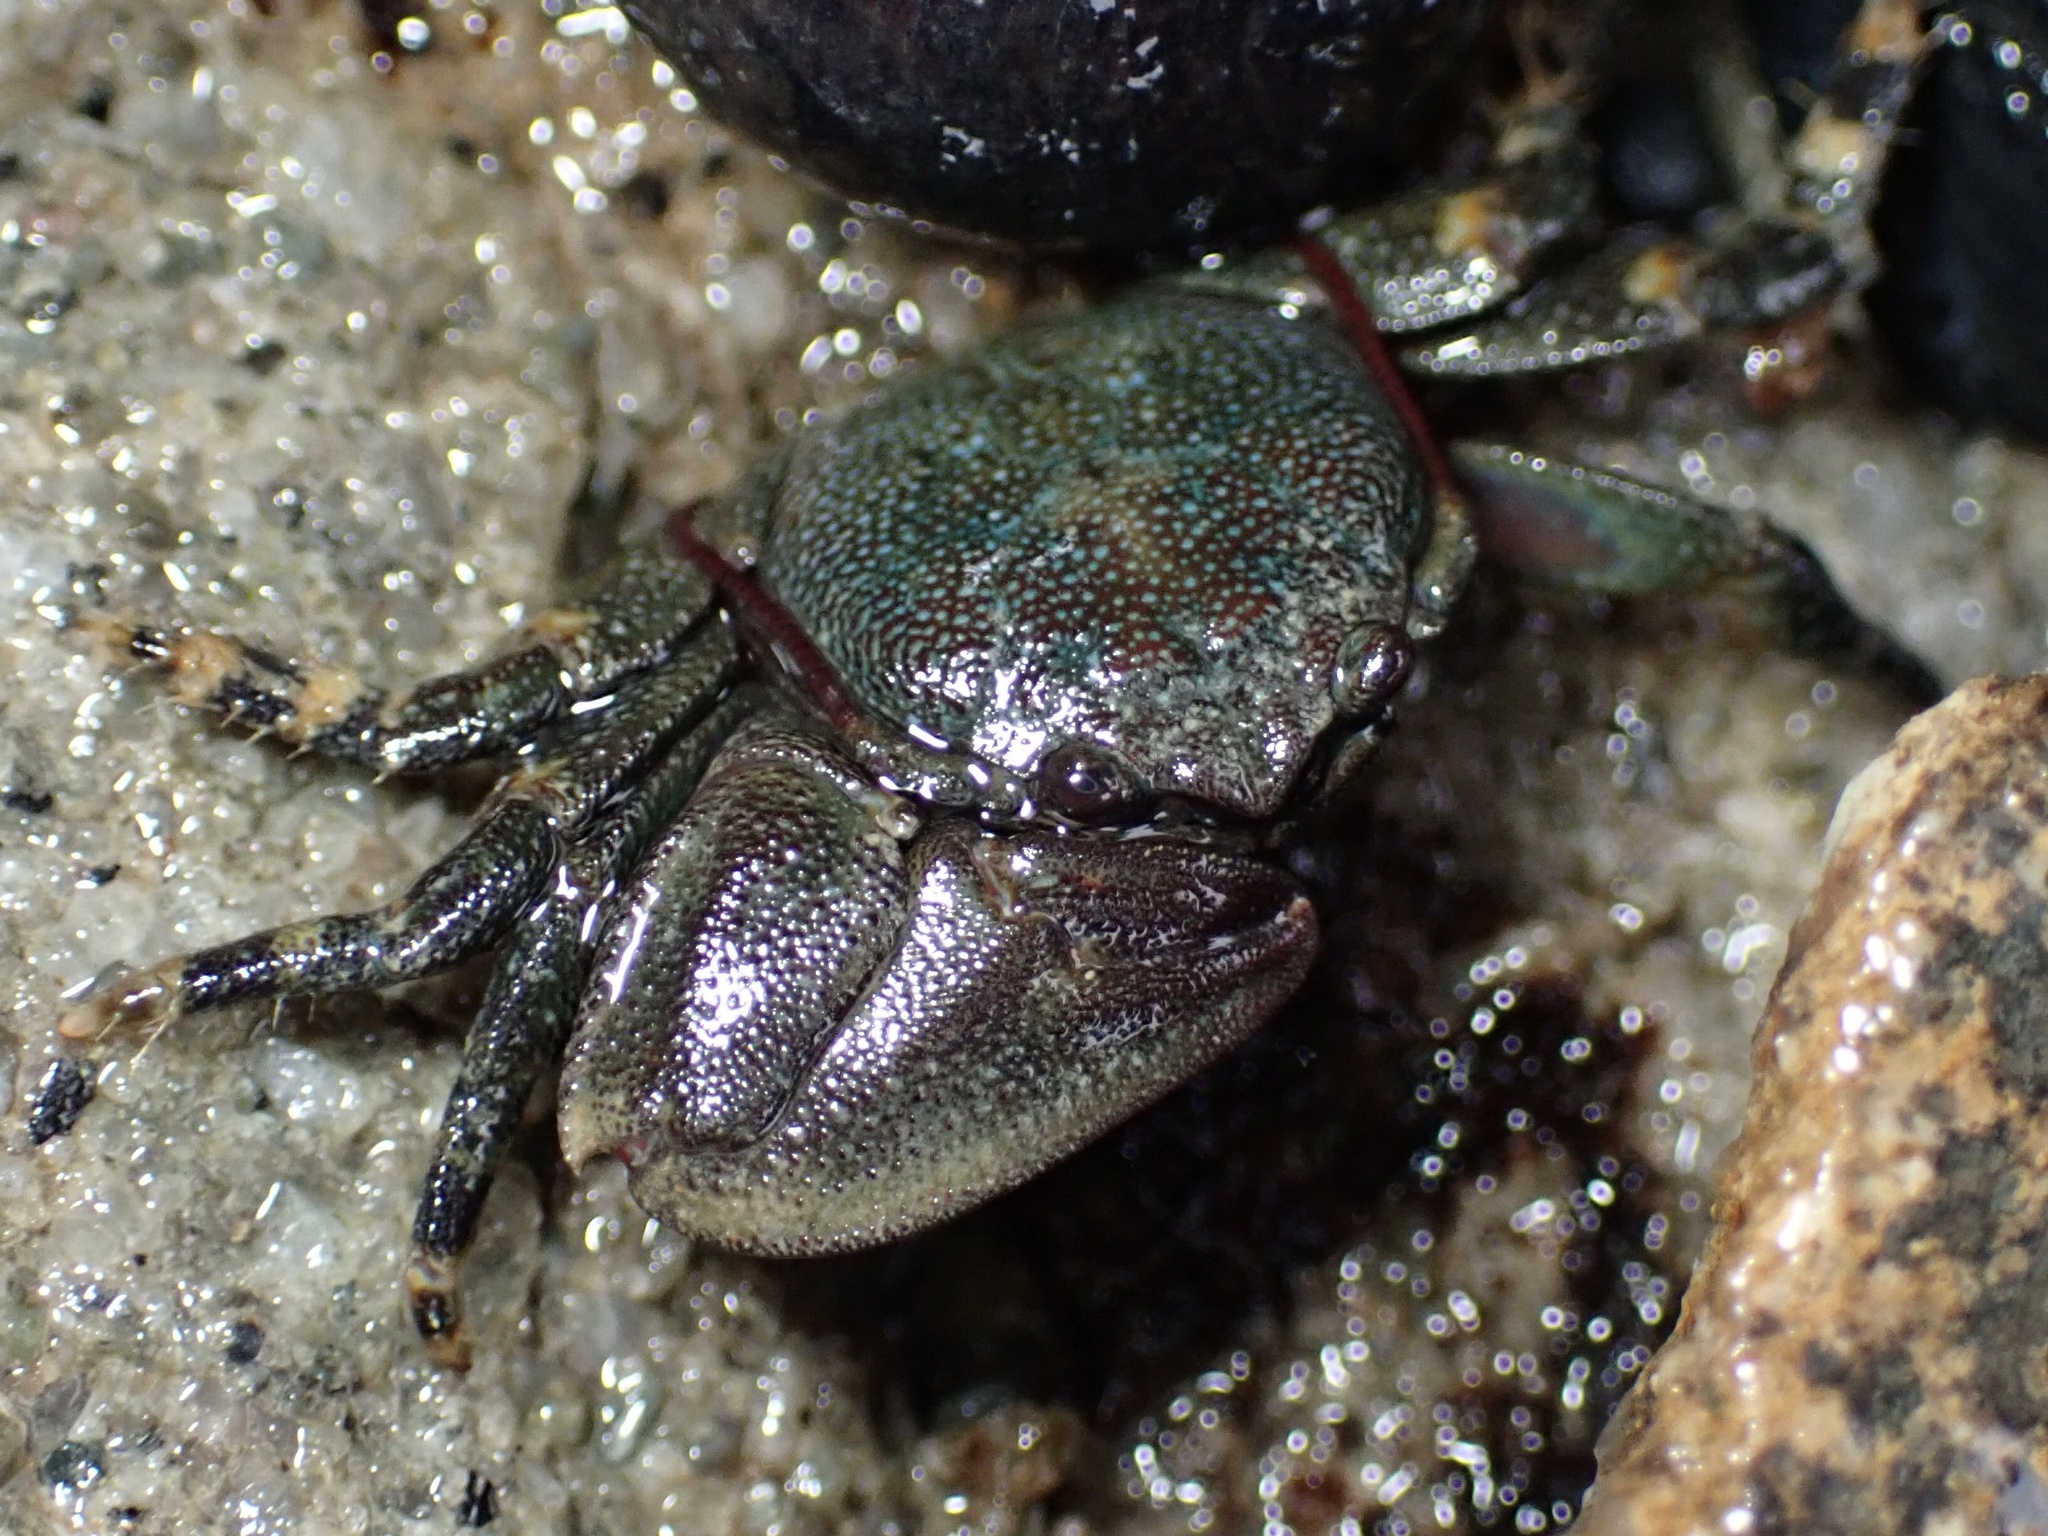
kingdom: Animalia
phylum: Arthropoda
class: Malacostraca
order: Decapoda
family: Porcellanidae
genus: Petrolisthes
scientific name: Petrolisthes cinctipes
